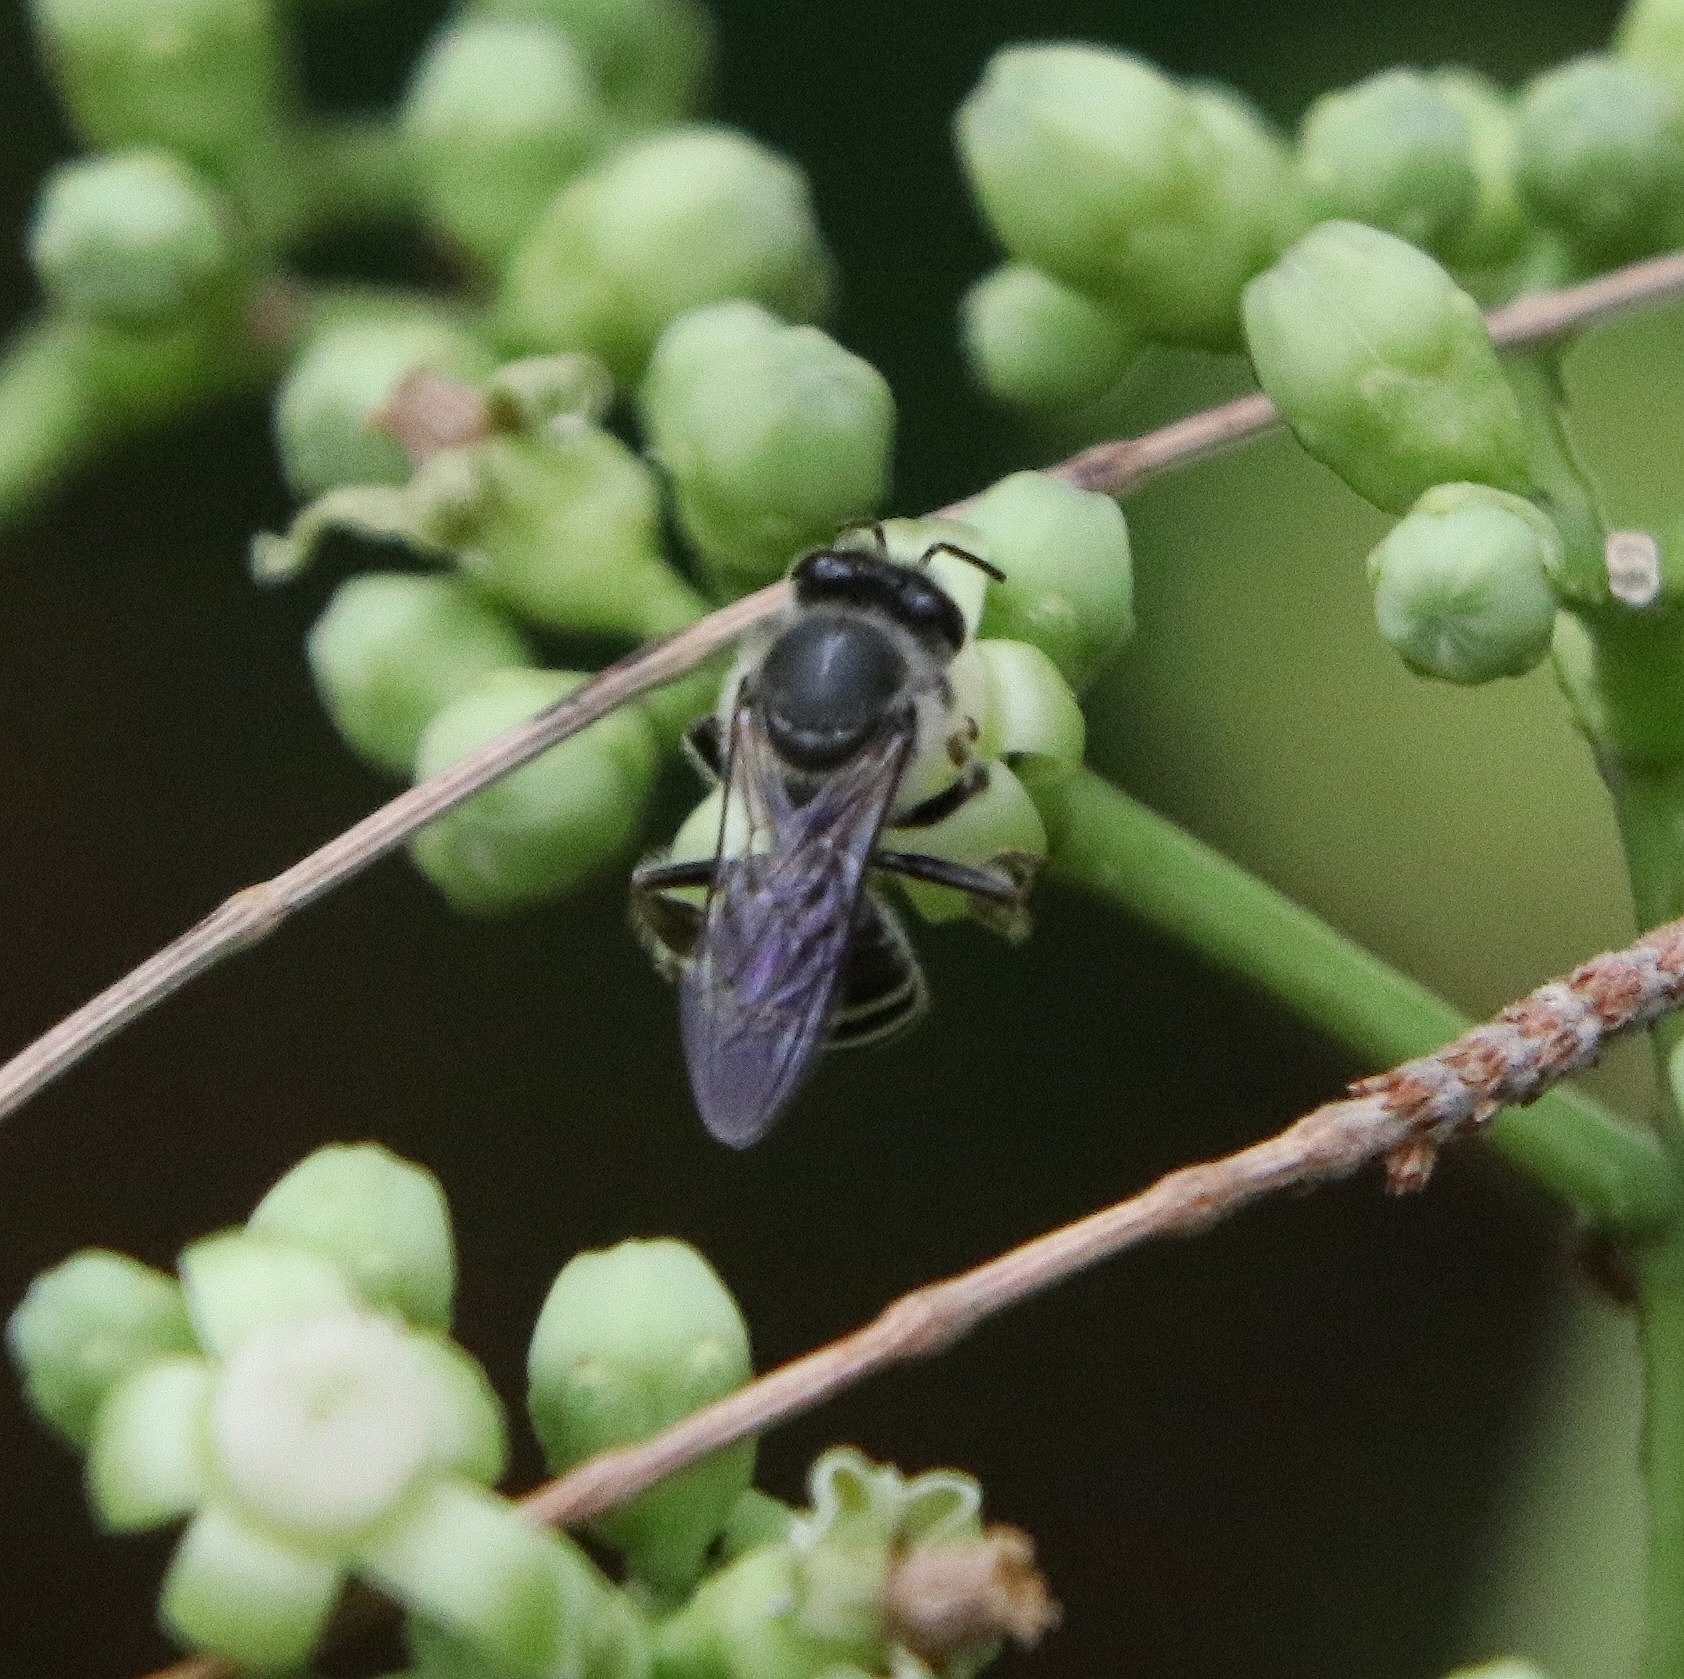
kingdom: Animalia
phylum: Arthropoda
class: Insecta
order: Hymenoptera
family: Apidae
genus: Apis
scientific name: Apis florea
